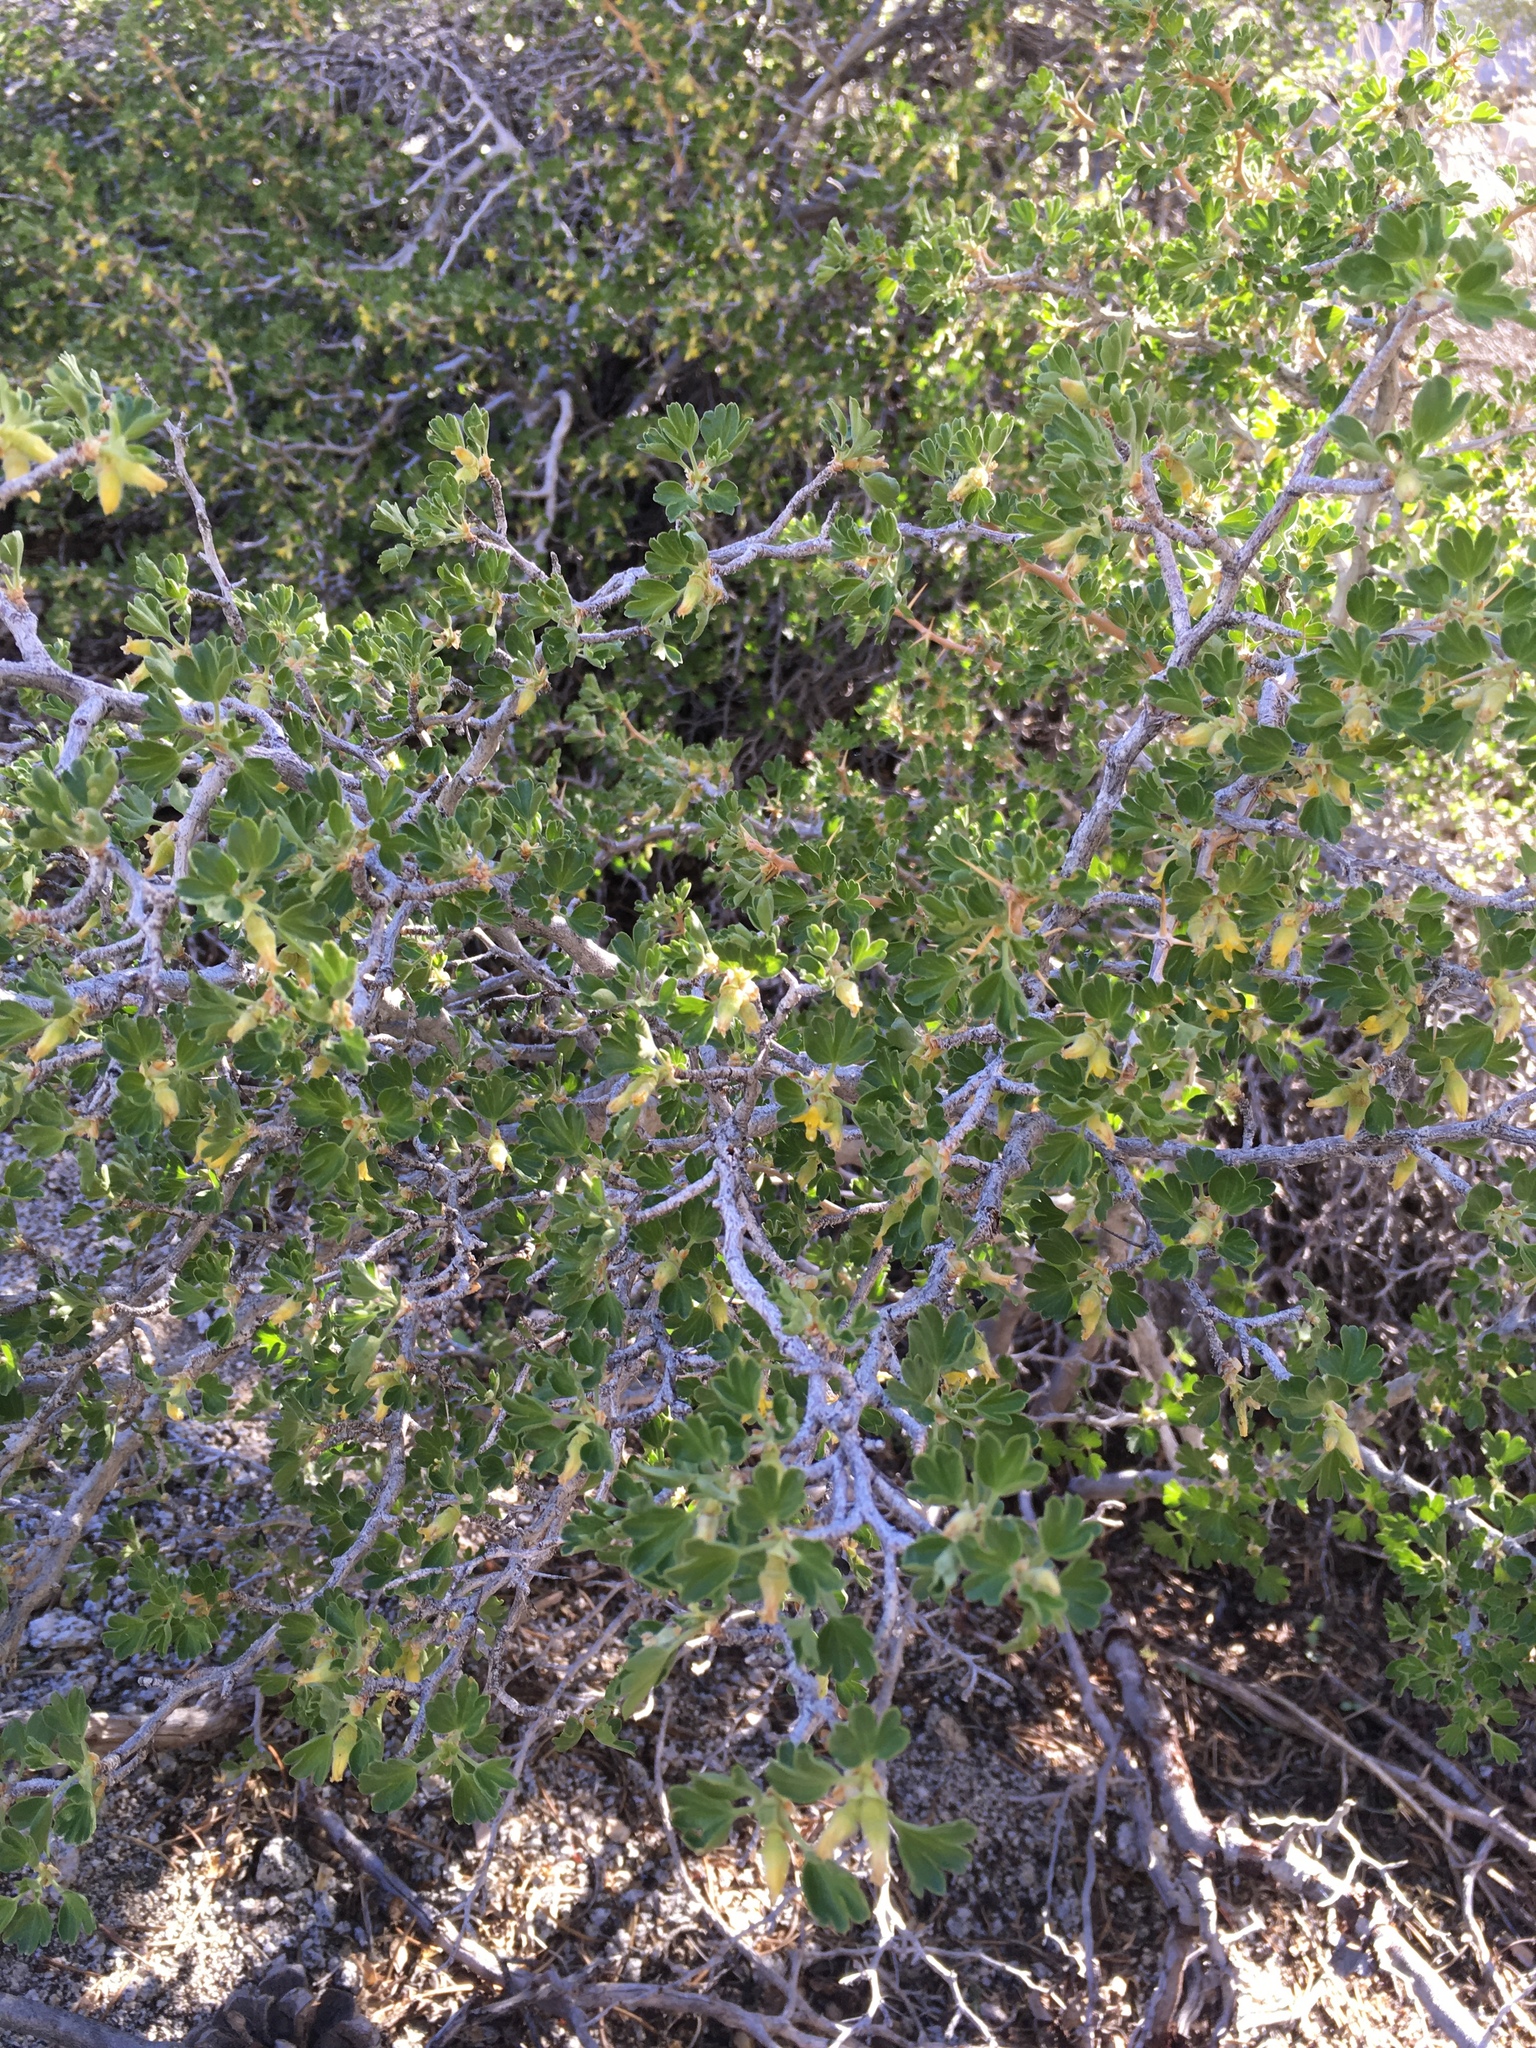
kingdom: Plantae
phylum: Tracheophyta
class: Magnoliopsida
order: Saxifragales
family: Grossulariaceae
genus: Ribes
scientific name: Ribes velutinum
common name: Desert gooseberry
